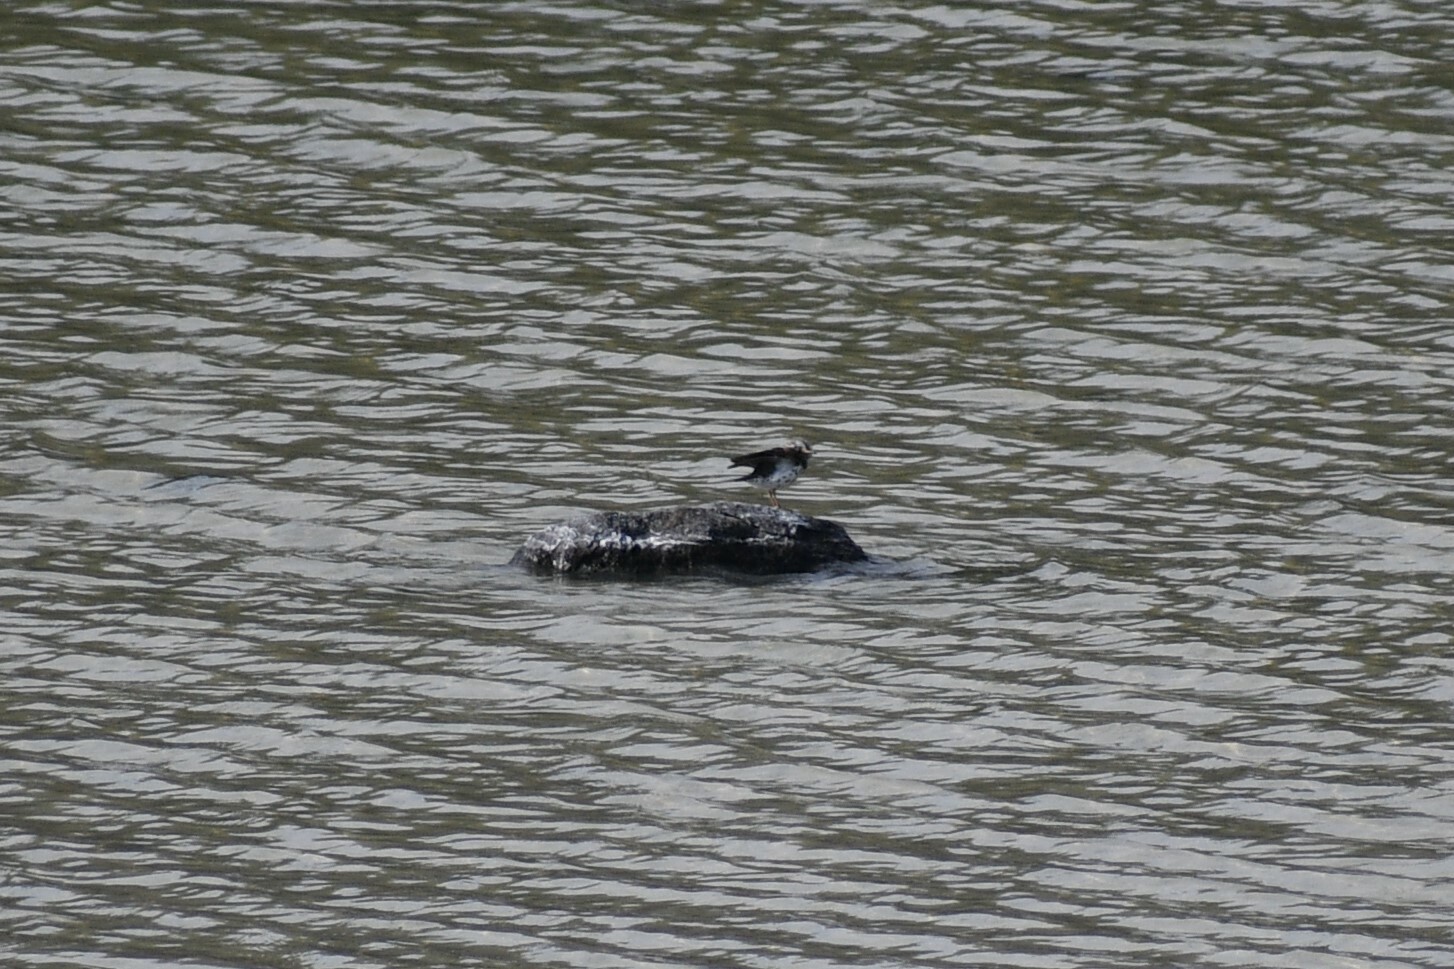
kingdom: Animalia
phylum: Chordata
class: Aves
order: Charadriiformes
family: Scolopacidae
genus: Actitis
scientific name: Actitis macularius
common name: Spotted sandpiper
